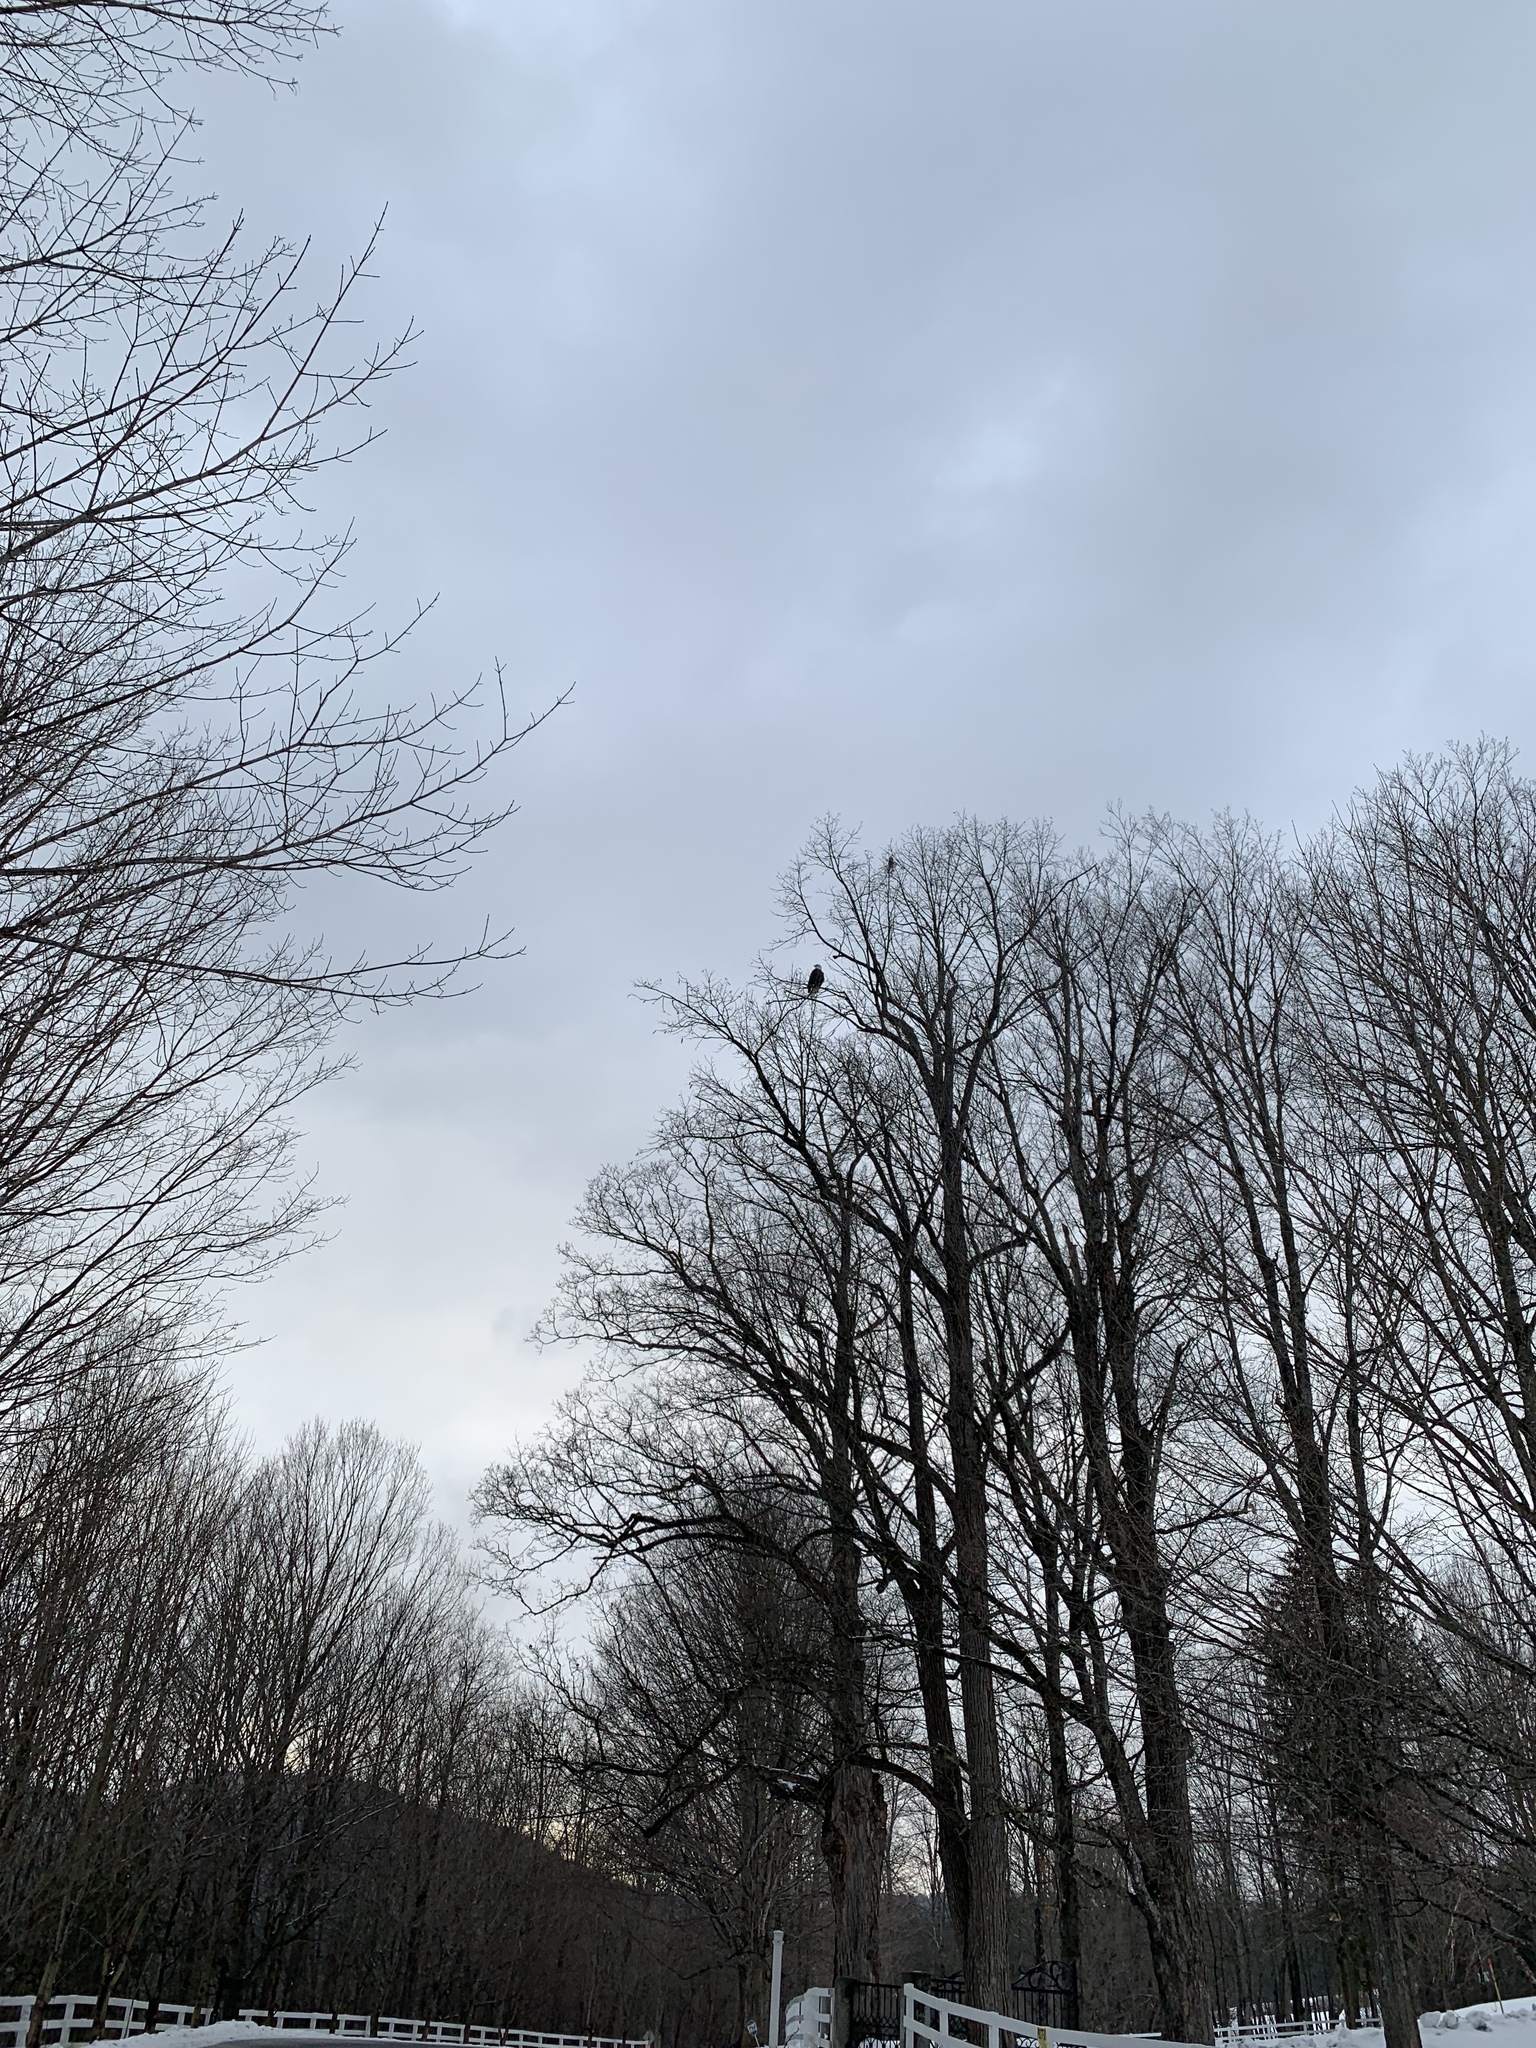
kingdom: Animalia
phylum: Chordata
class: Aves
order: Accipitriformes
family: Accipitridae
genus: Haliaeetus
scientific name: Haliaeetus leucocephalus
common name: Bald eagle
